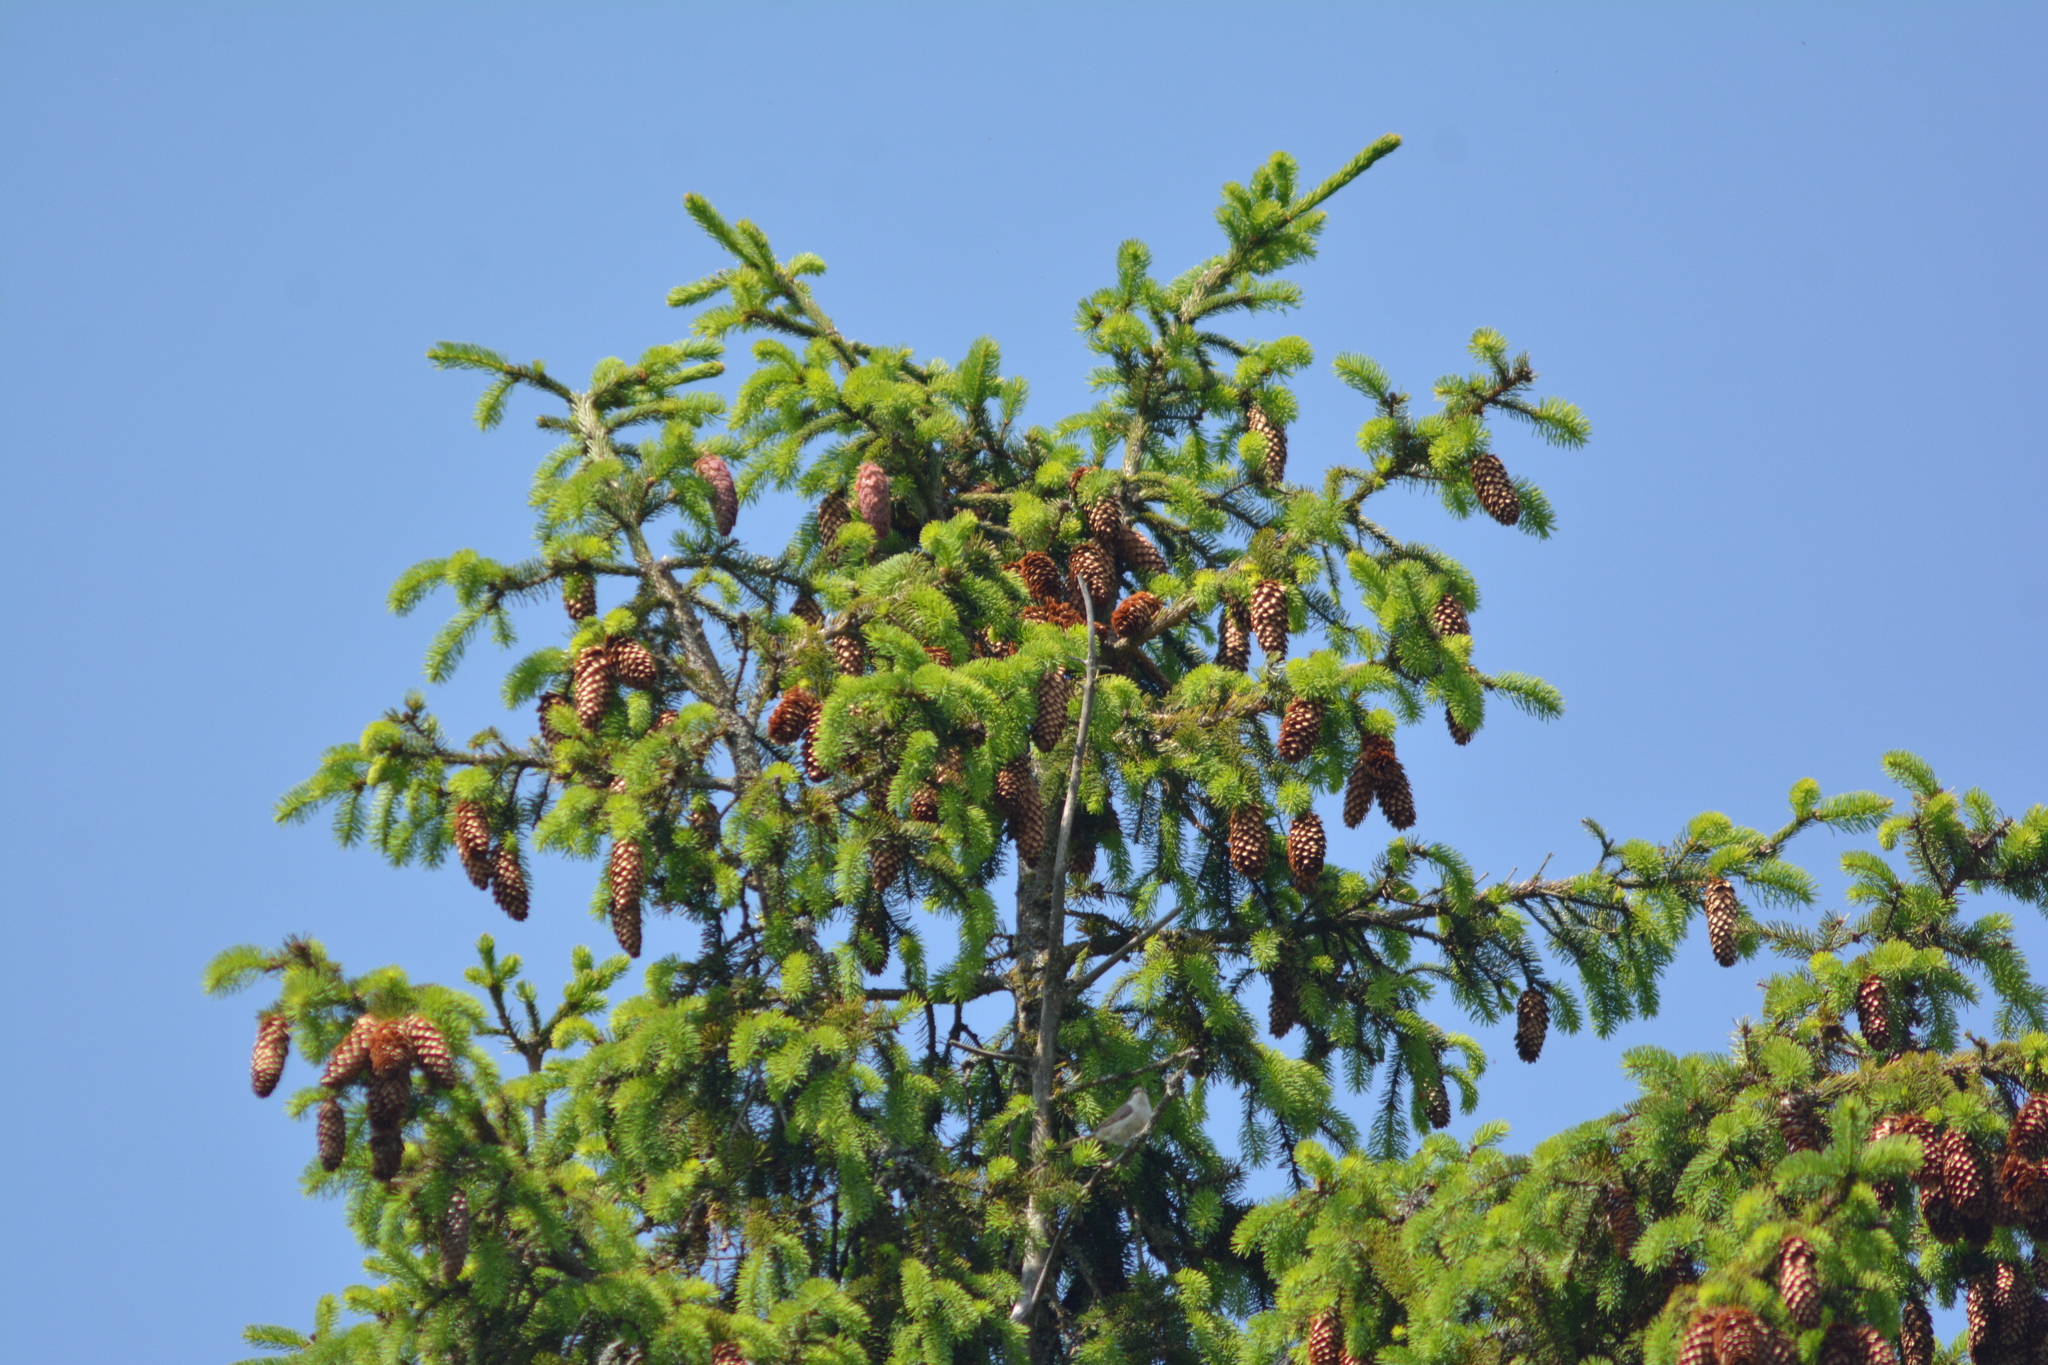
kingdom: Plantae
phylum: Tracheophyta
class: Pinopsida
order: Pinales
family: Pinaceae
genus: Picea
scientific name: Picea abies
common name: Norway spruce
